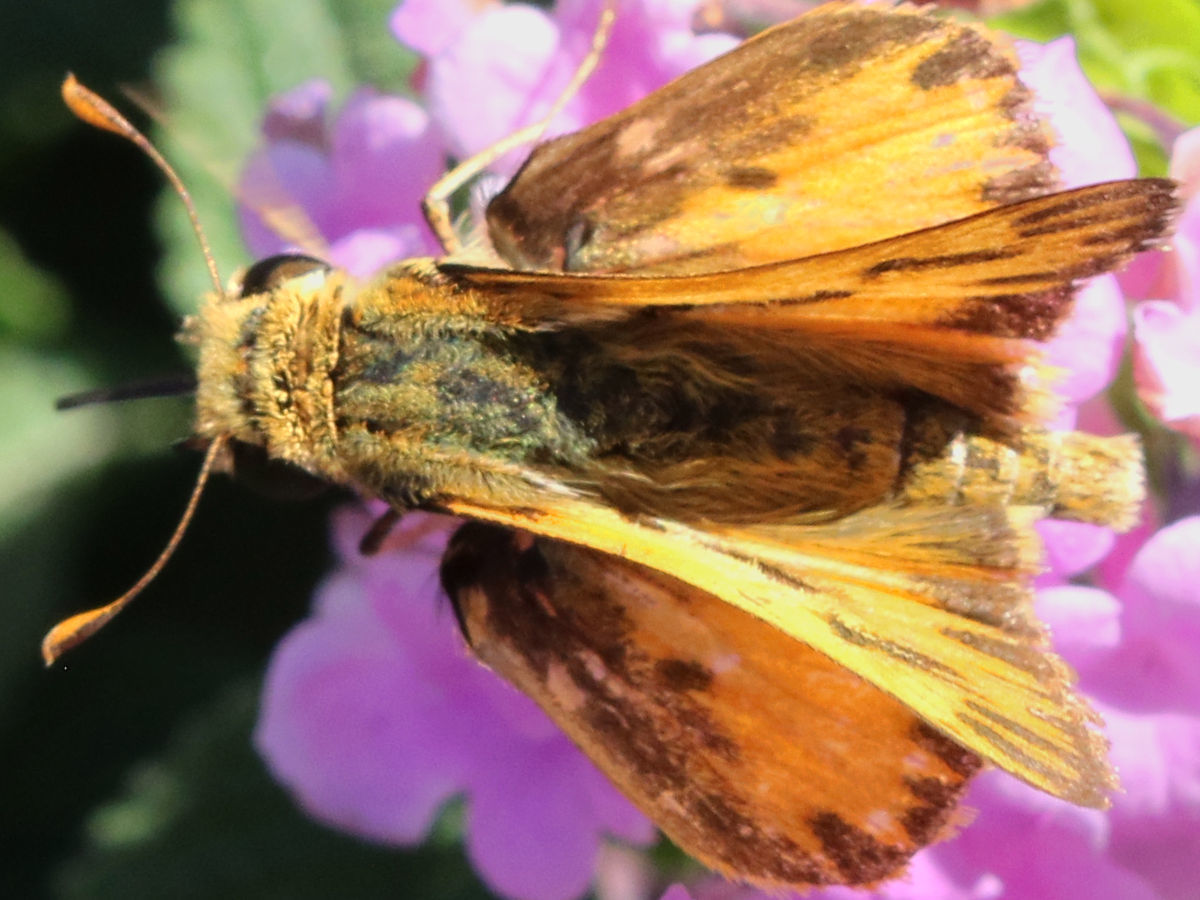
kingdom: Animalia
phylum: Arthropoda
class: Insecta
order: Lepidoptera
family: Hesperiidae
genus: Hylephila
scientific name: Hylephila phyleus
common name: Fiery skipper
